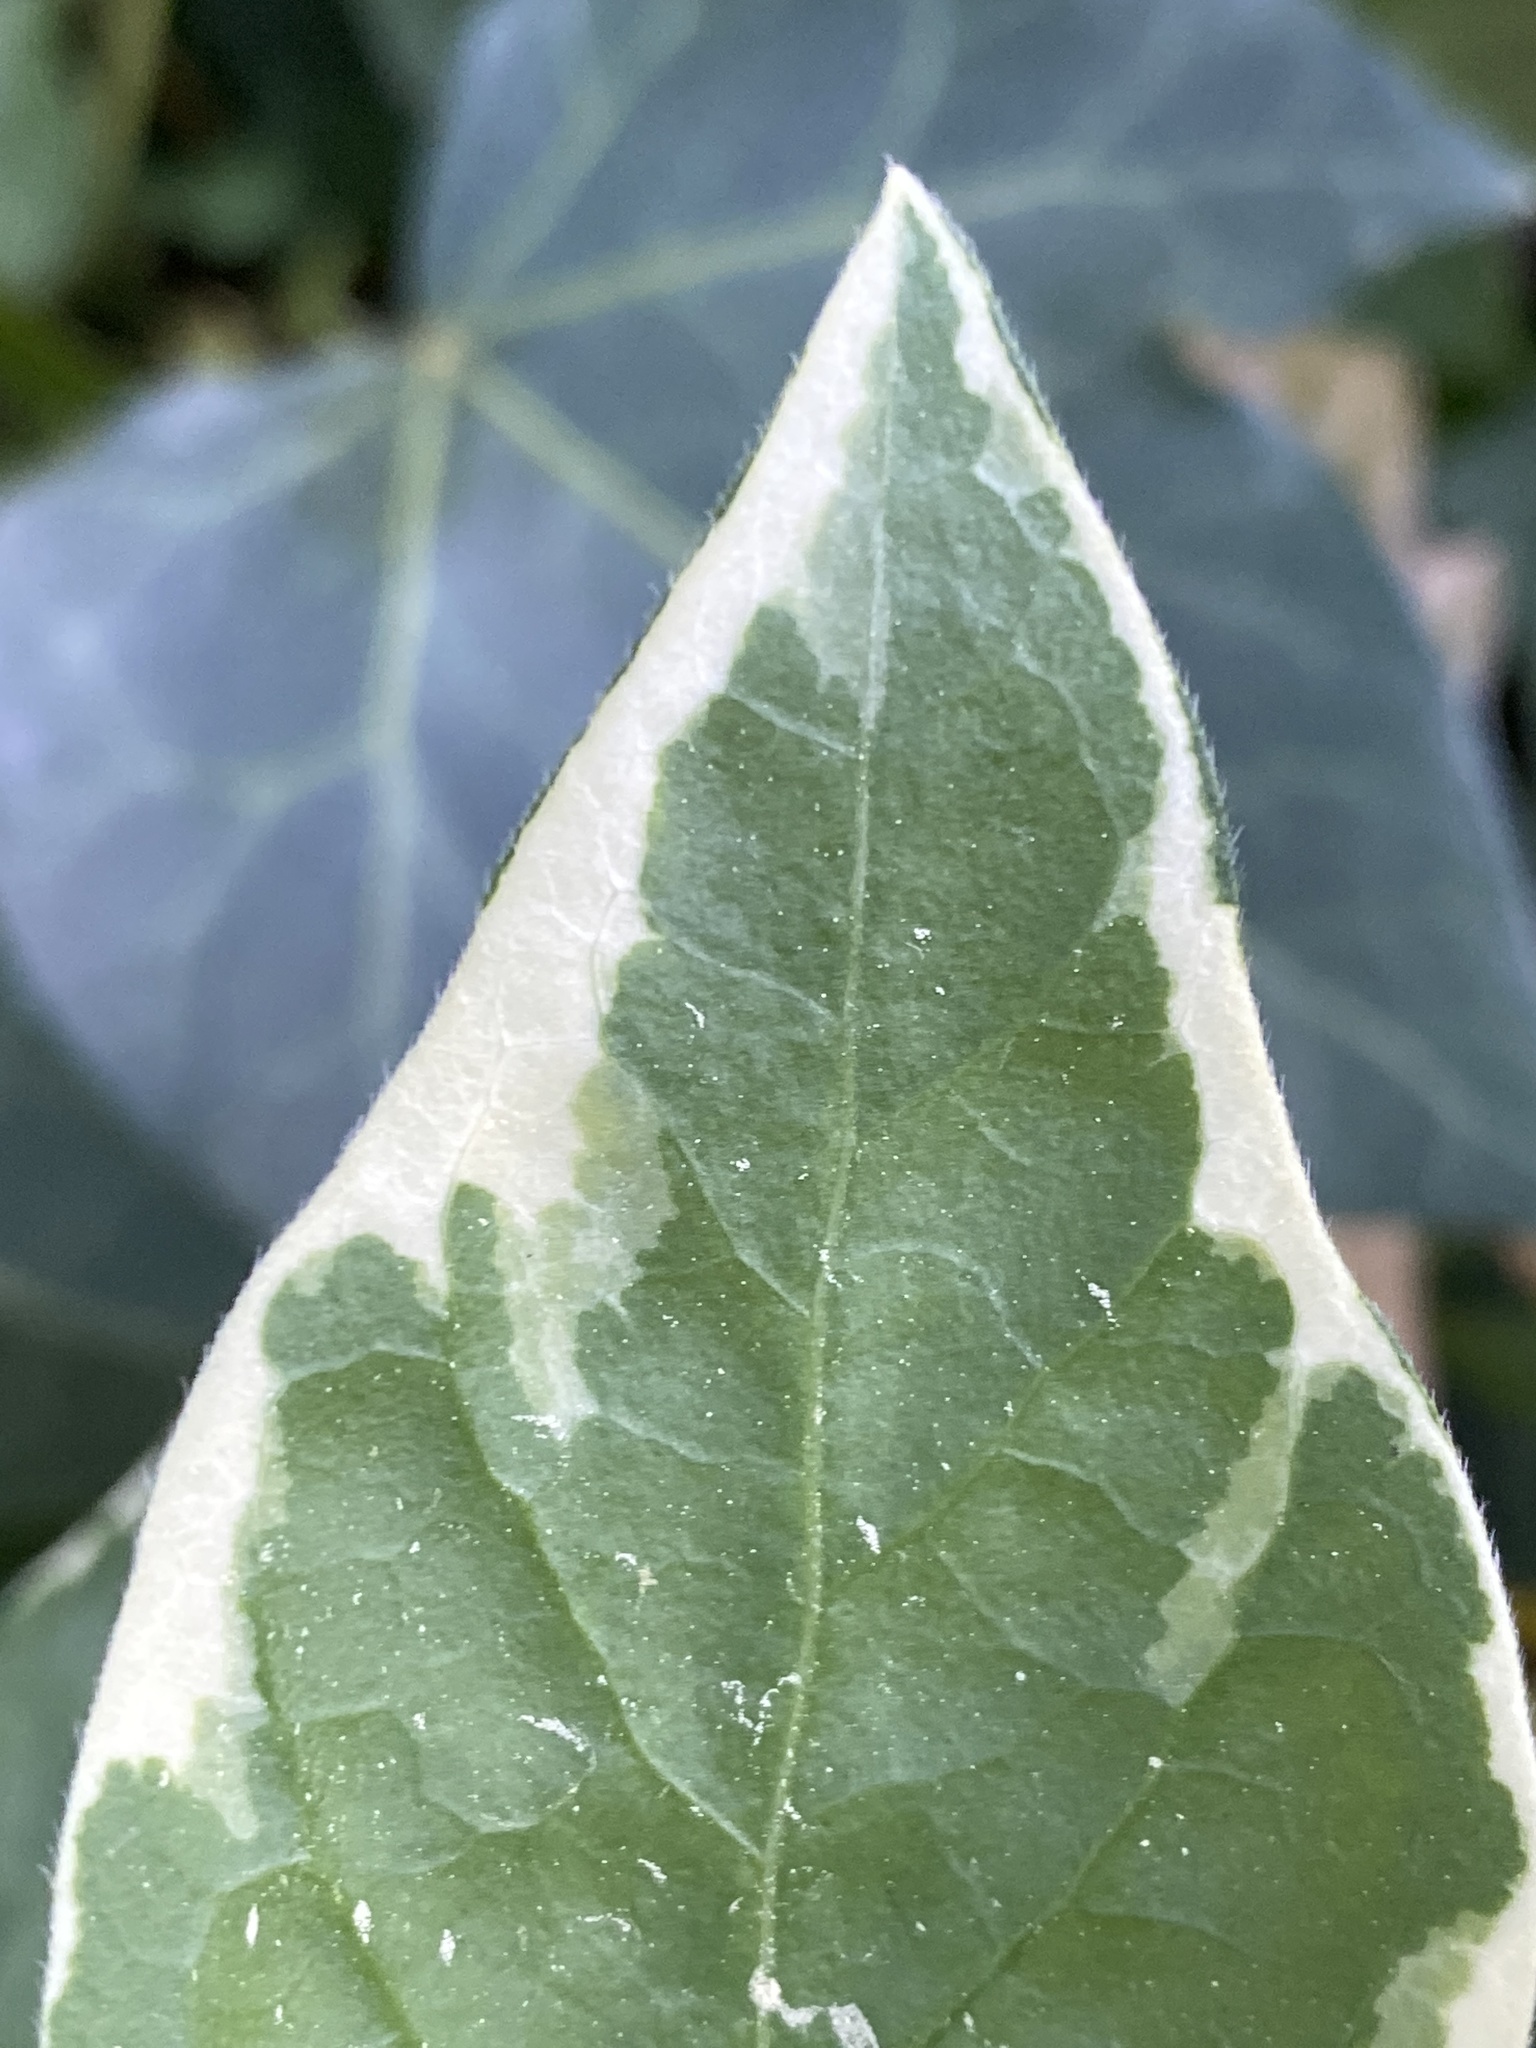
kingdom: Plantae
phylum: Tracheophyta
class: Magnoliopsida
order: Gentianales
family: Apocynaceae
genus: Vinca
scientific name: Vinca major
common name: Greater periwinkle
